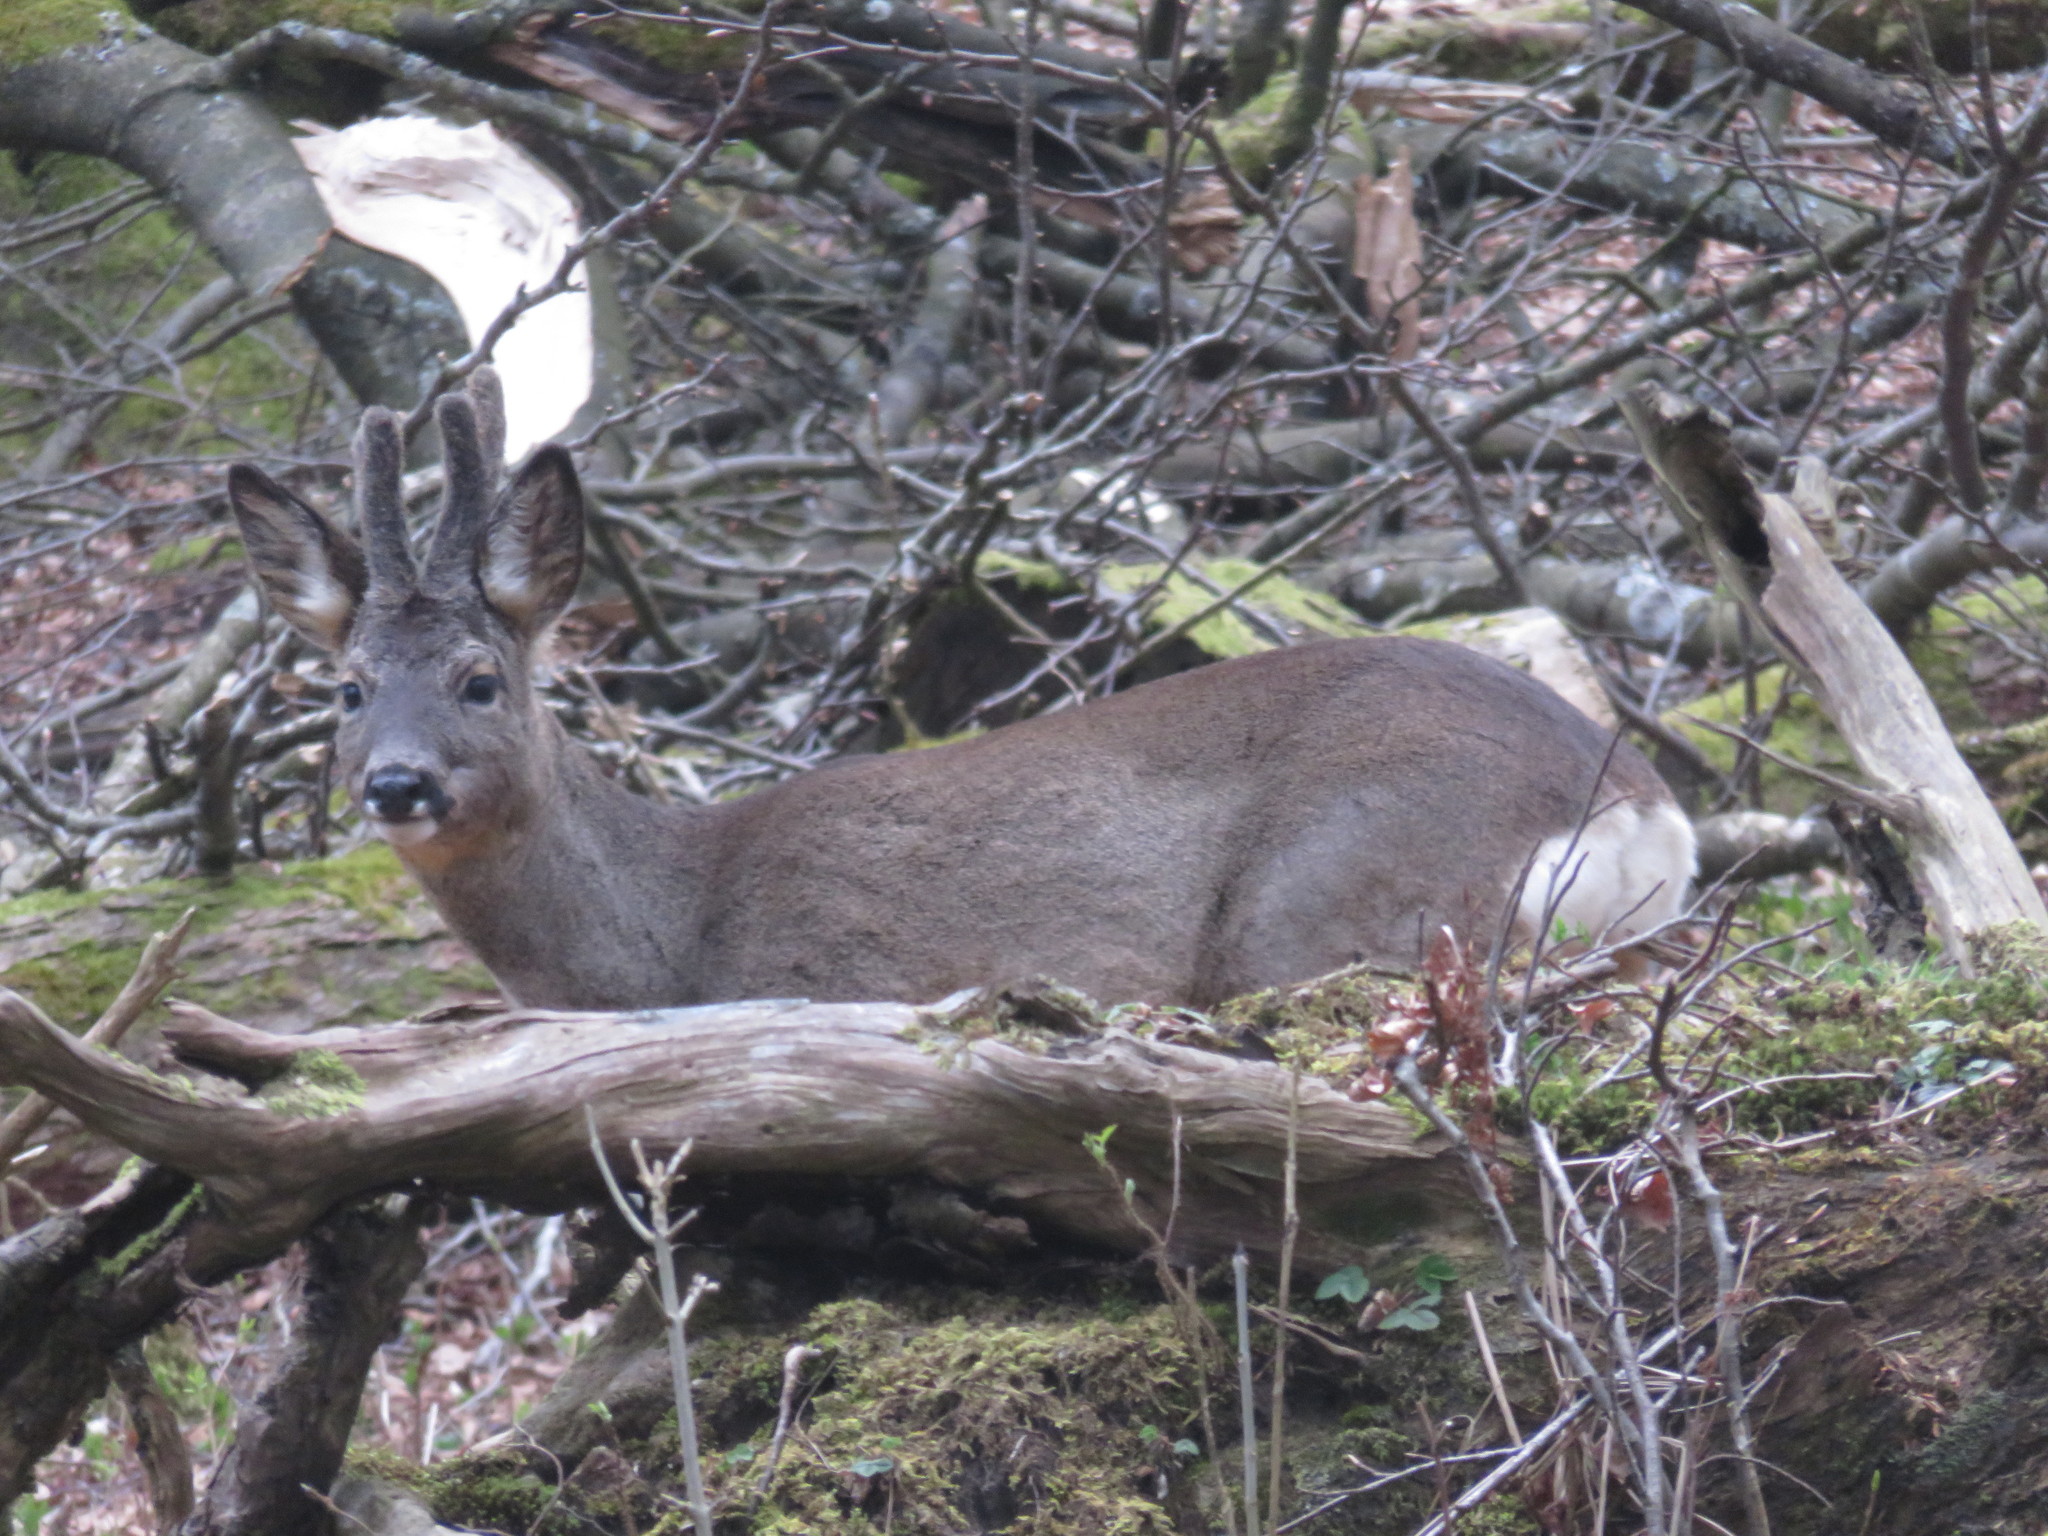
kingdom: Animalia
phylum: Chordata
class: Mammalia
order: Artiodactyla
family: Cervidae
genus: Capreolus
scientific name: Capreolus capreolus
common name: Western roe deer
